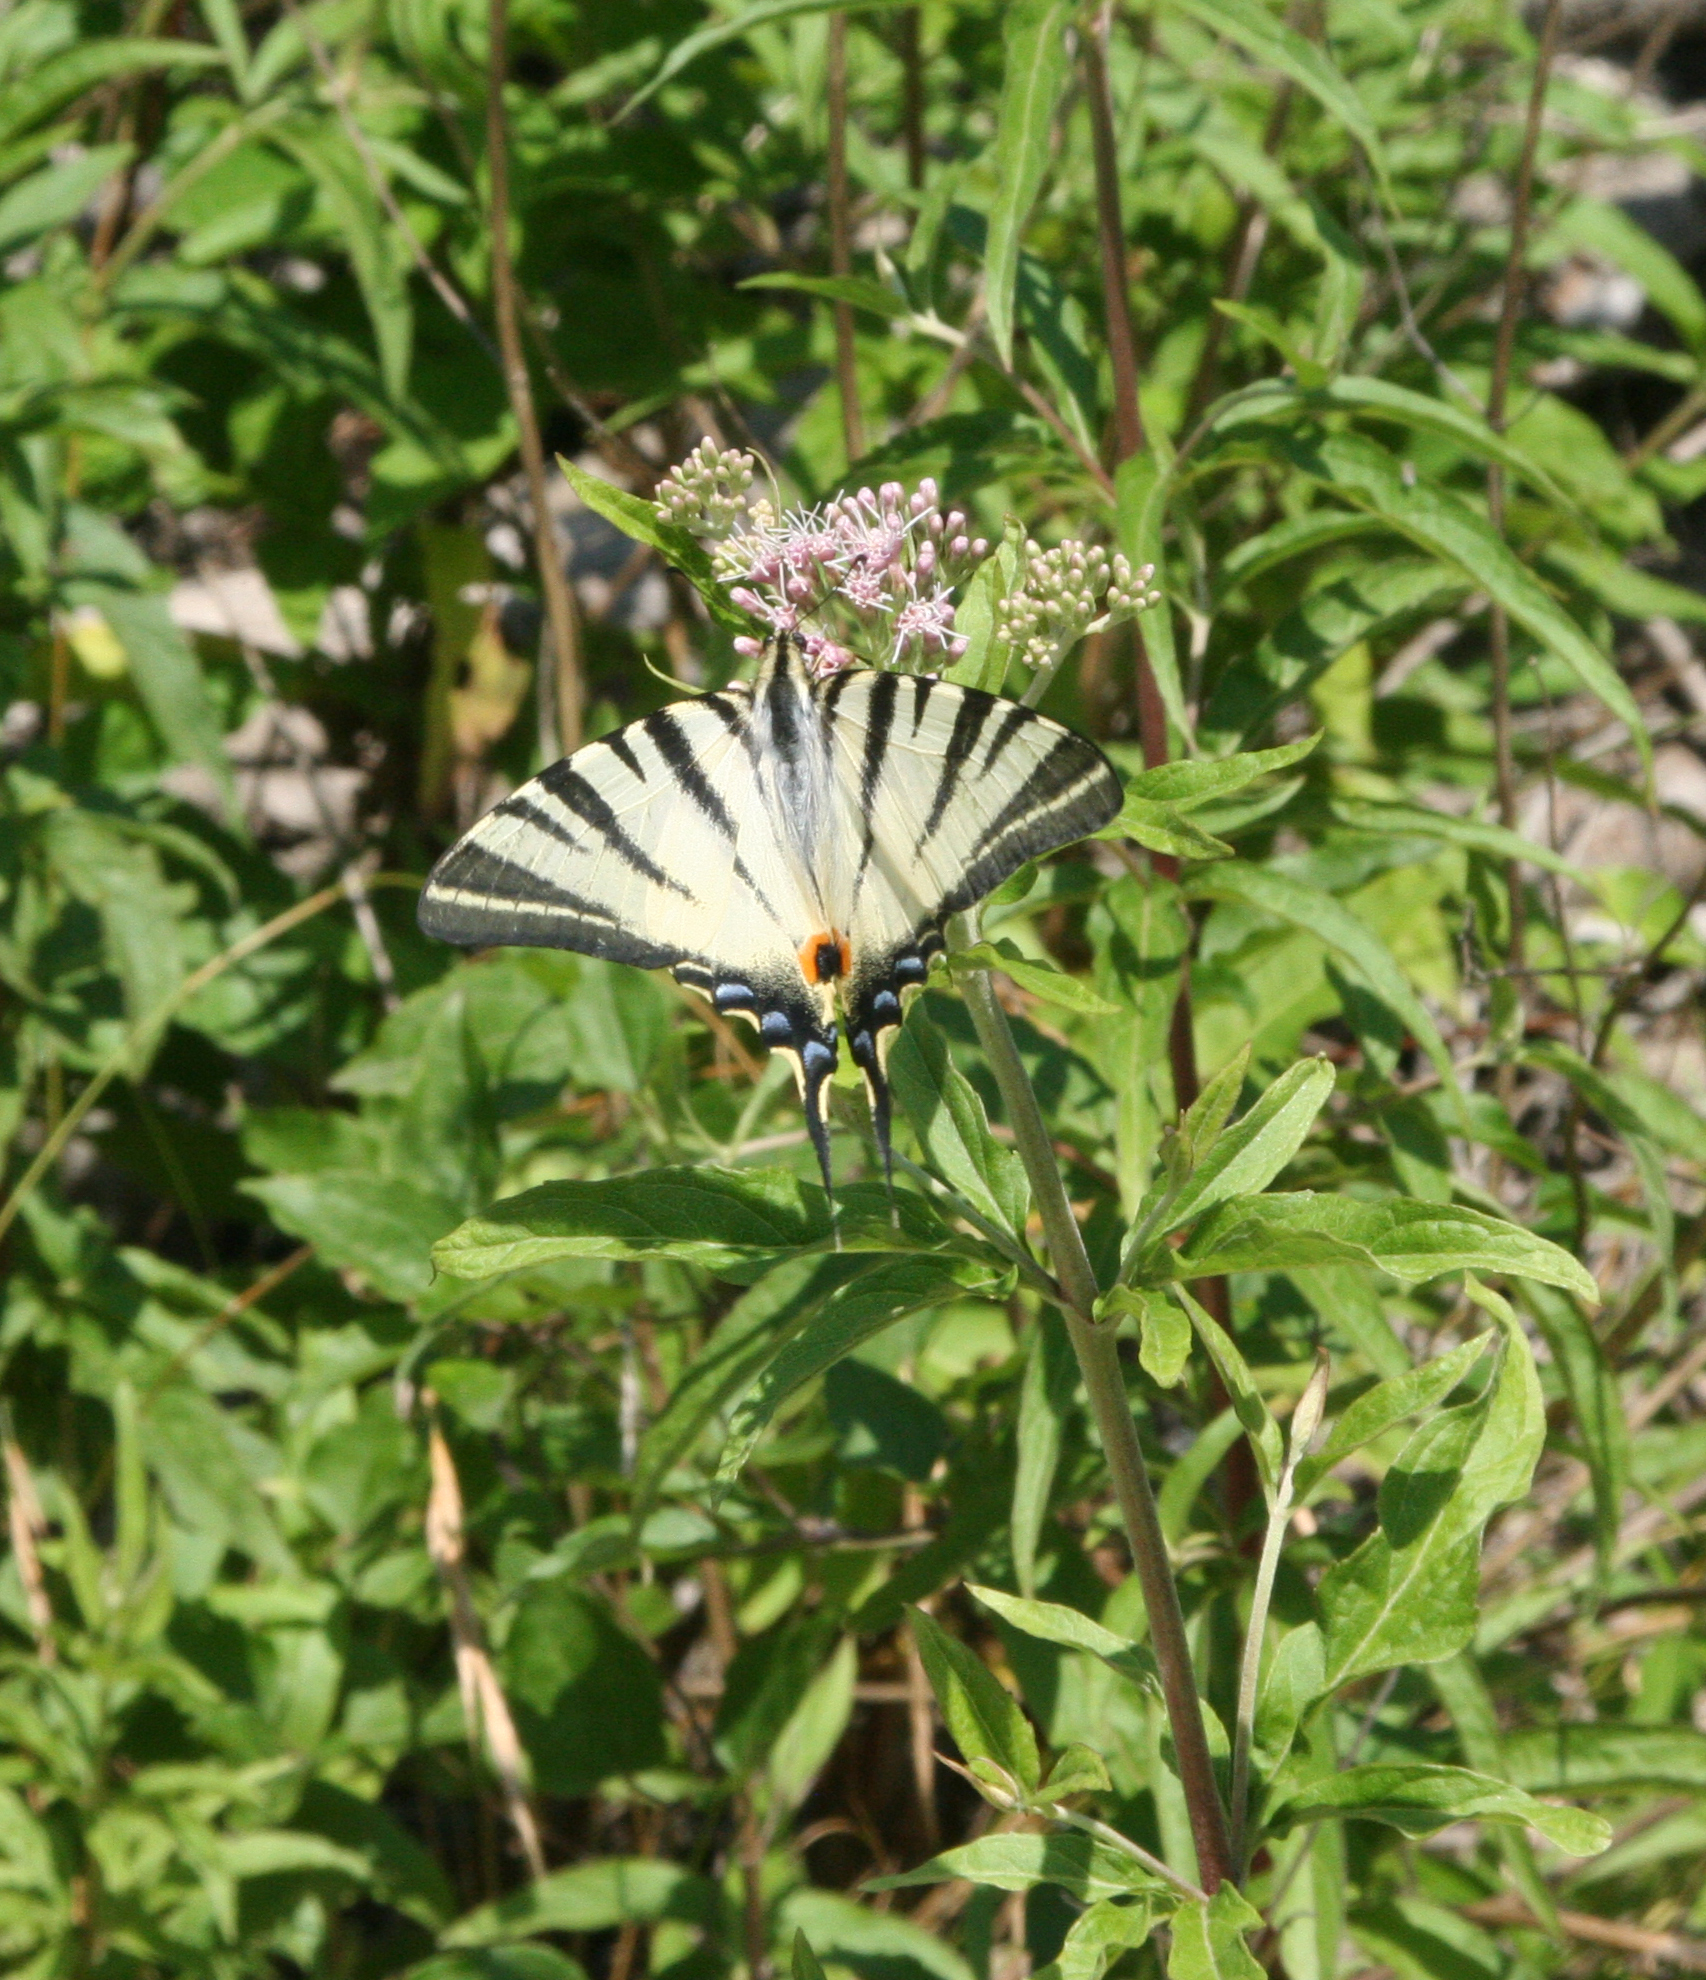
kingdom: Animalia
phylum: Arthropoda
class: Insecta
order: Lepidoptera
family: Papilionidae
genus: Iphiclides
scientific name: Iphiclides podalirius
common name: Scarce swallowtail
